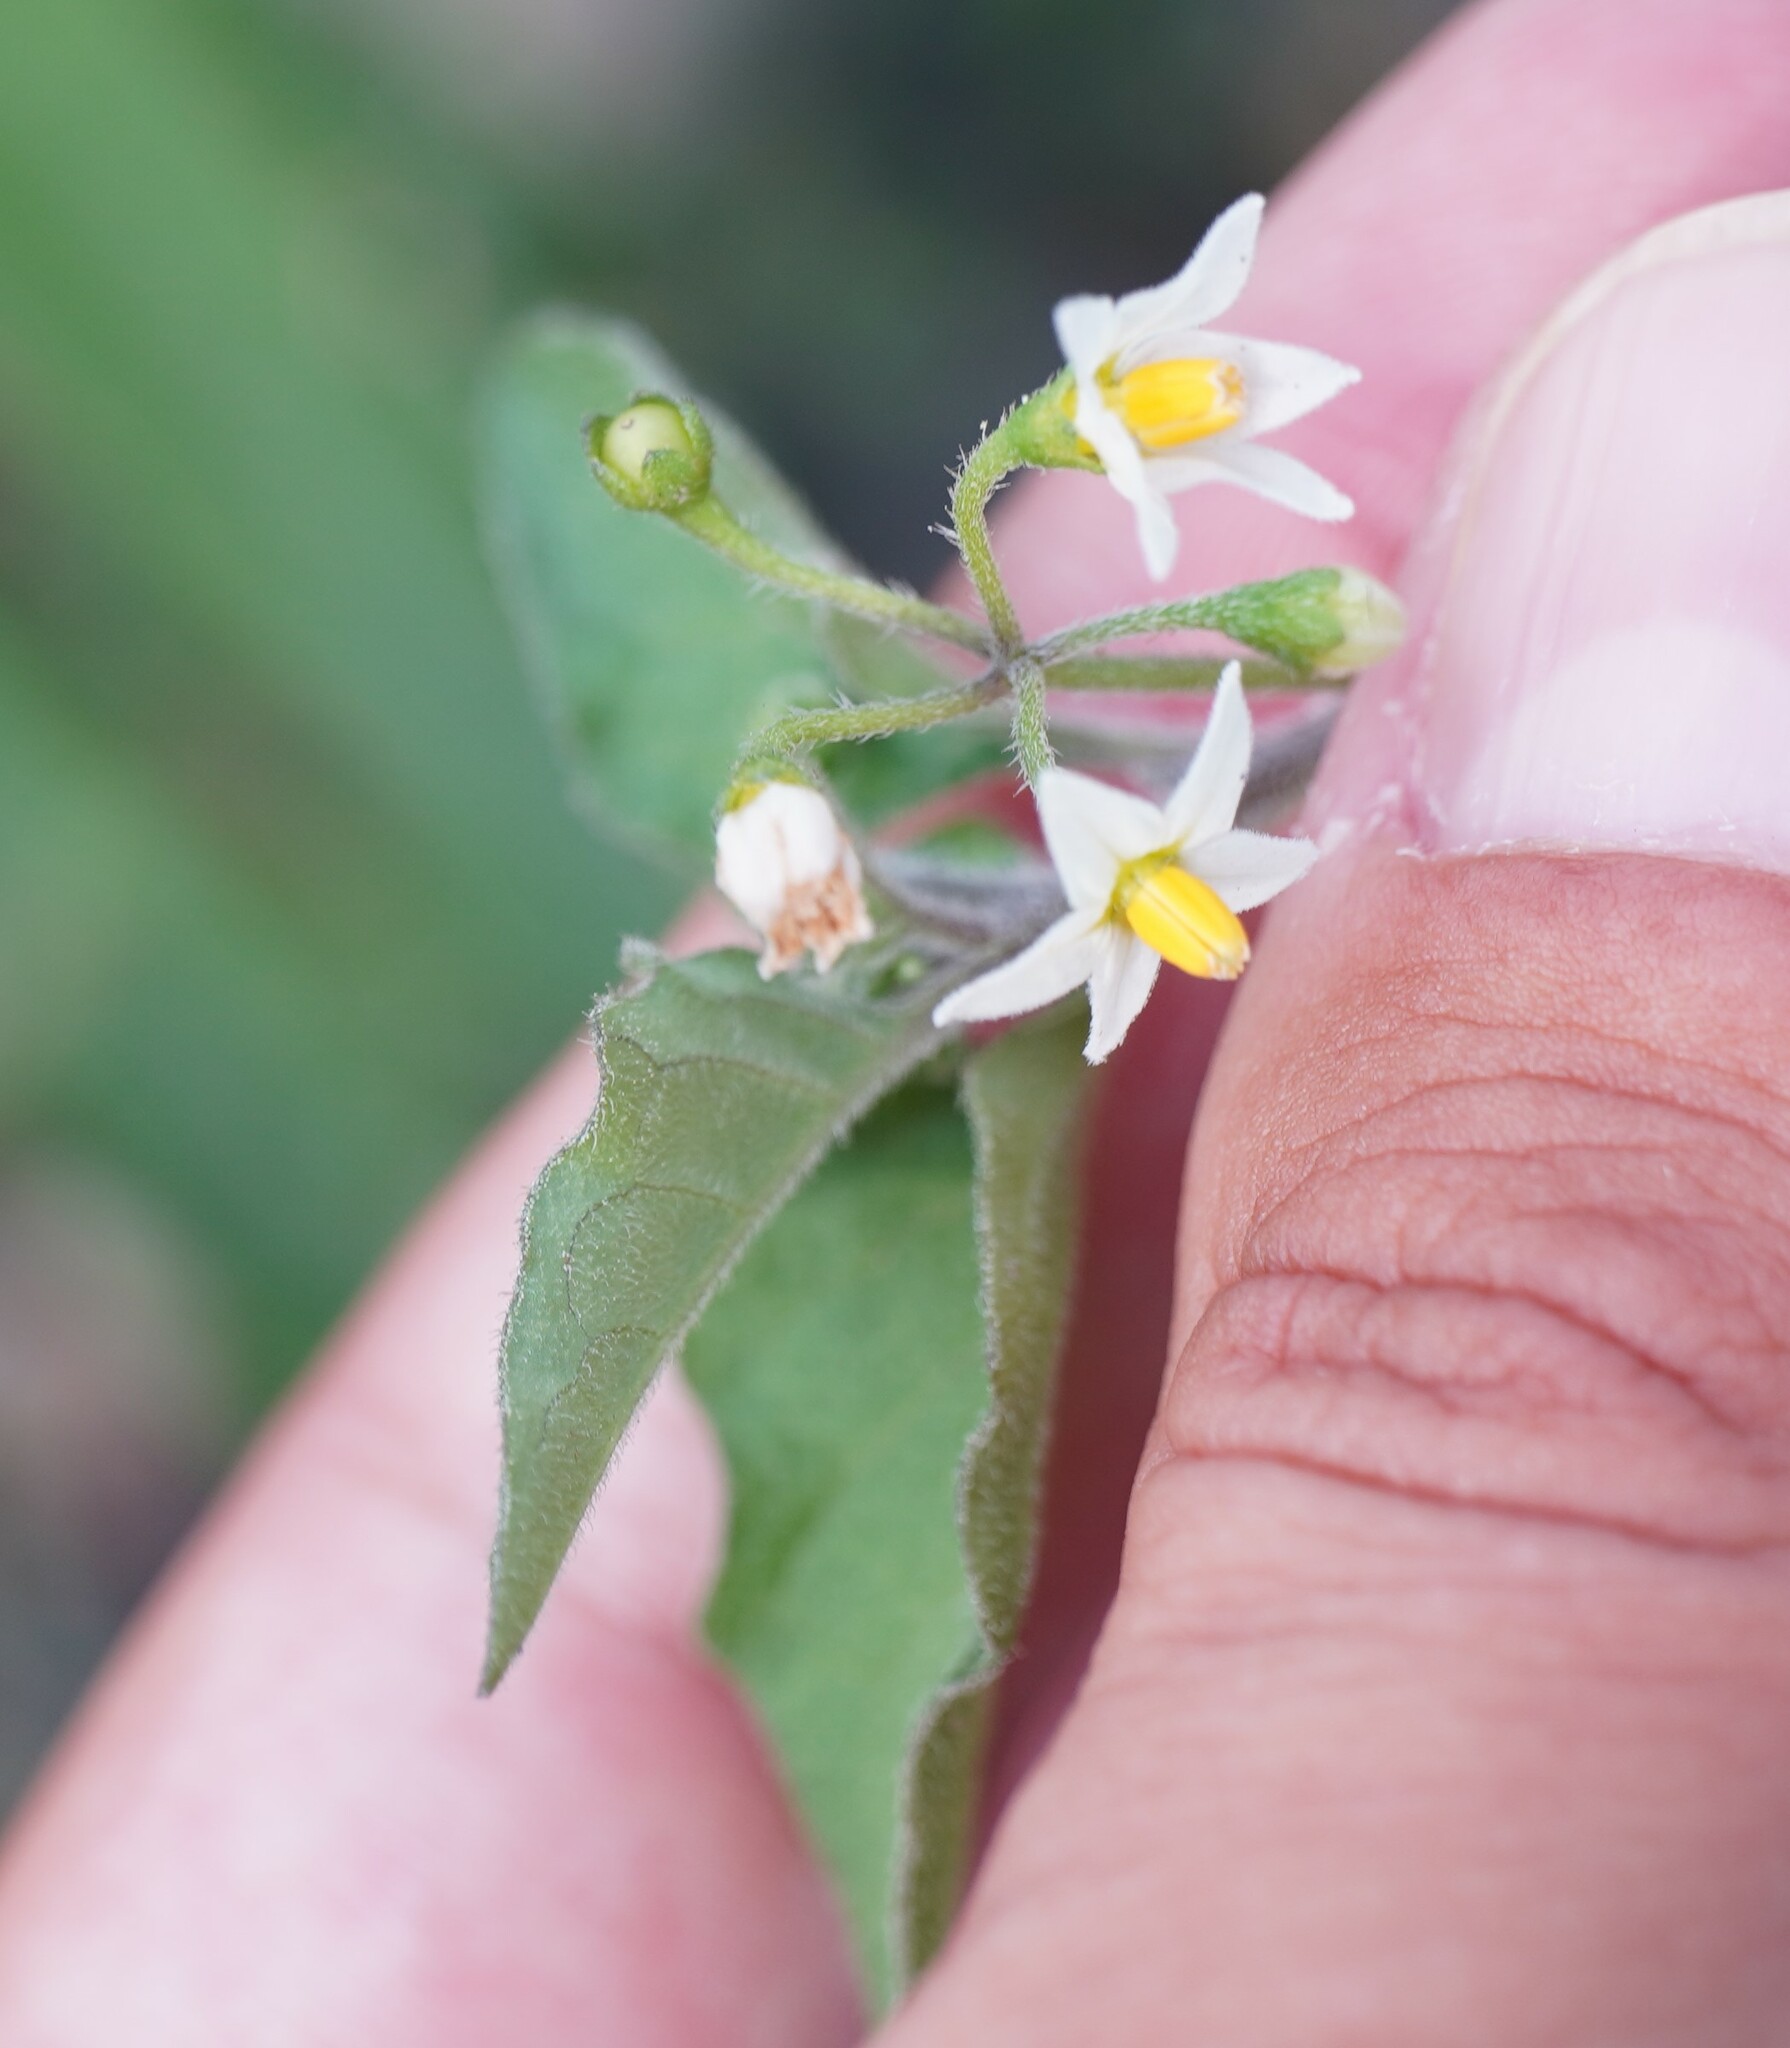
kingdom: Plantae
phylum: Tracheophyta
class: Magnoliopsida
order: Solanales
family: Solanaceae
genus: Solanum
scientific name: Solanum nigrum
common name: Black nightshade
